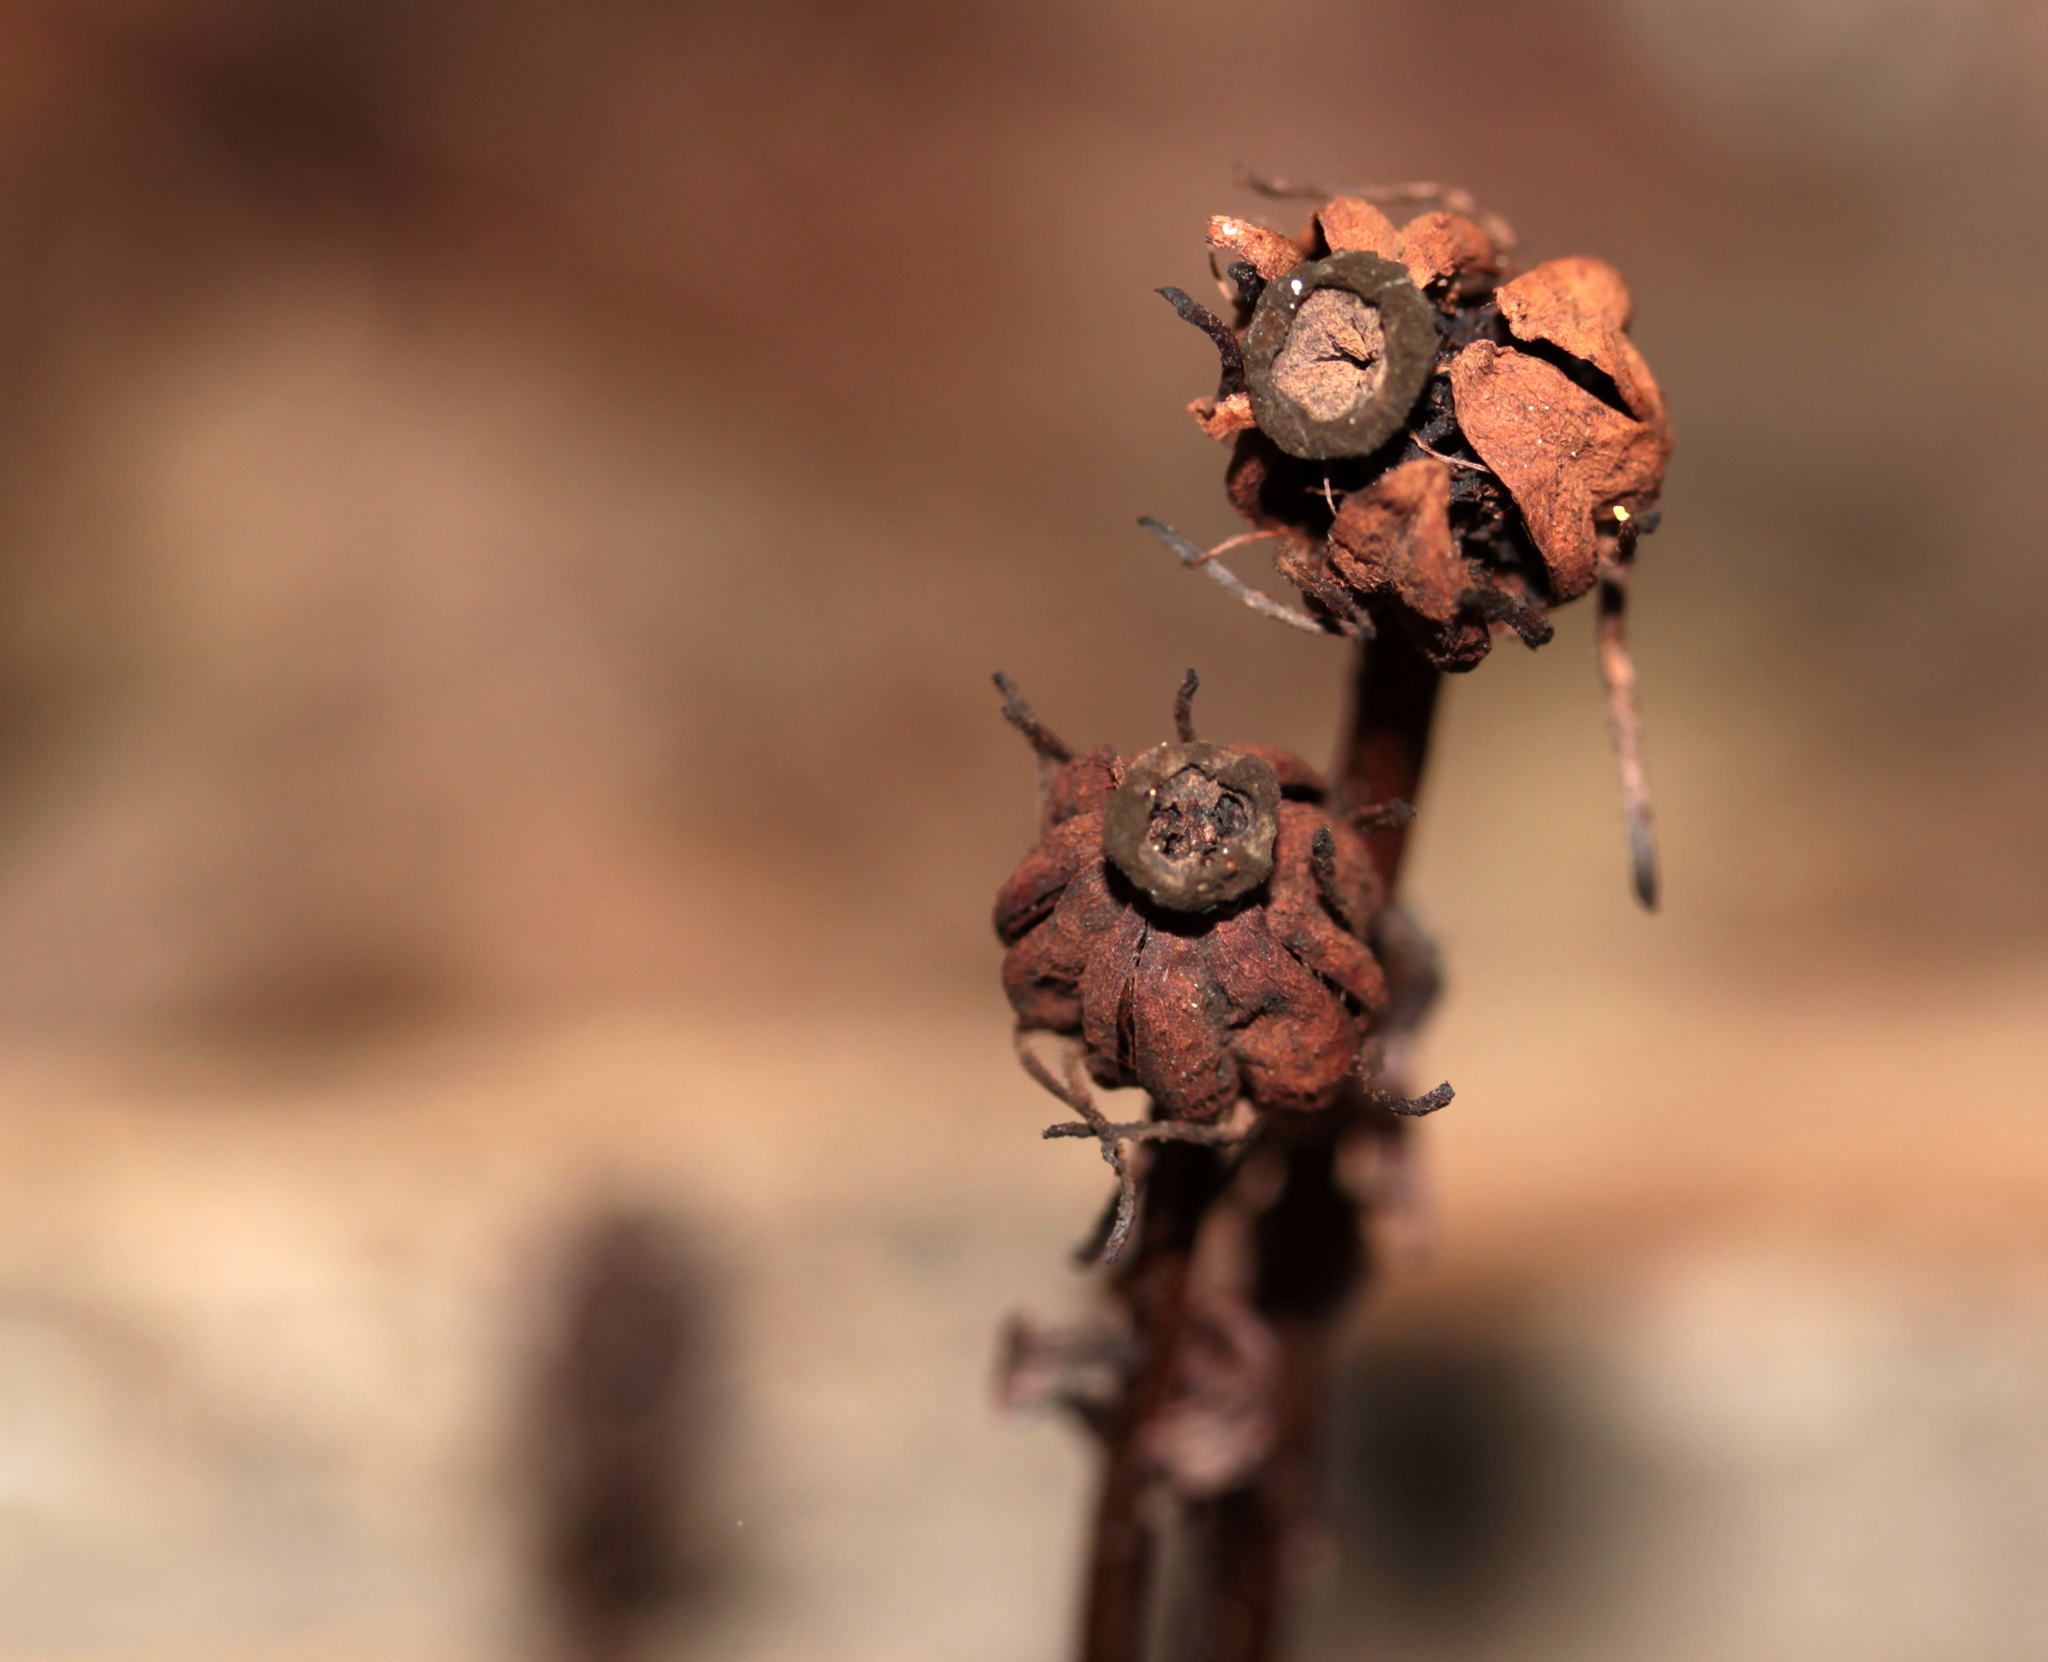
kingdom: Plantae
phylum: Tracheophyta
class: Magnoliopsida
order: Ericales
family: Ericaceae
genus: Monotropa
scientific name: Monotropa uniflora
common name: Convulsion root
